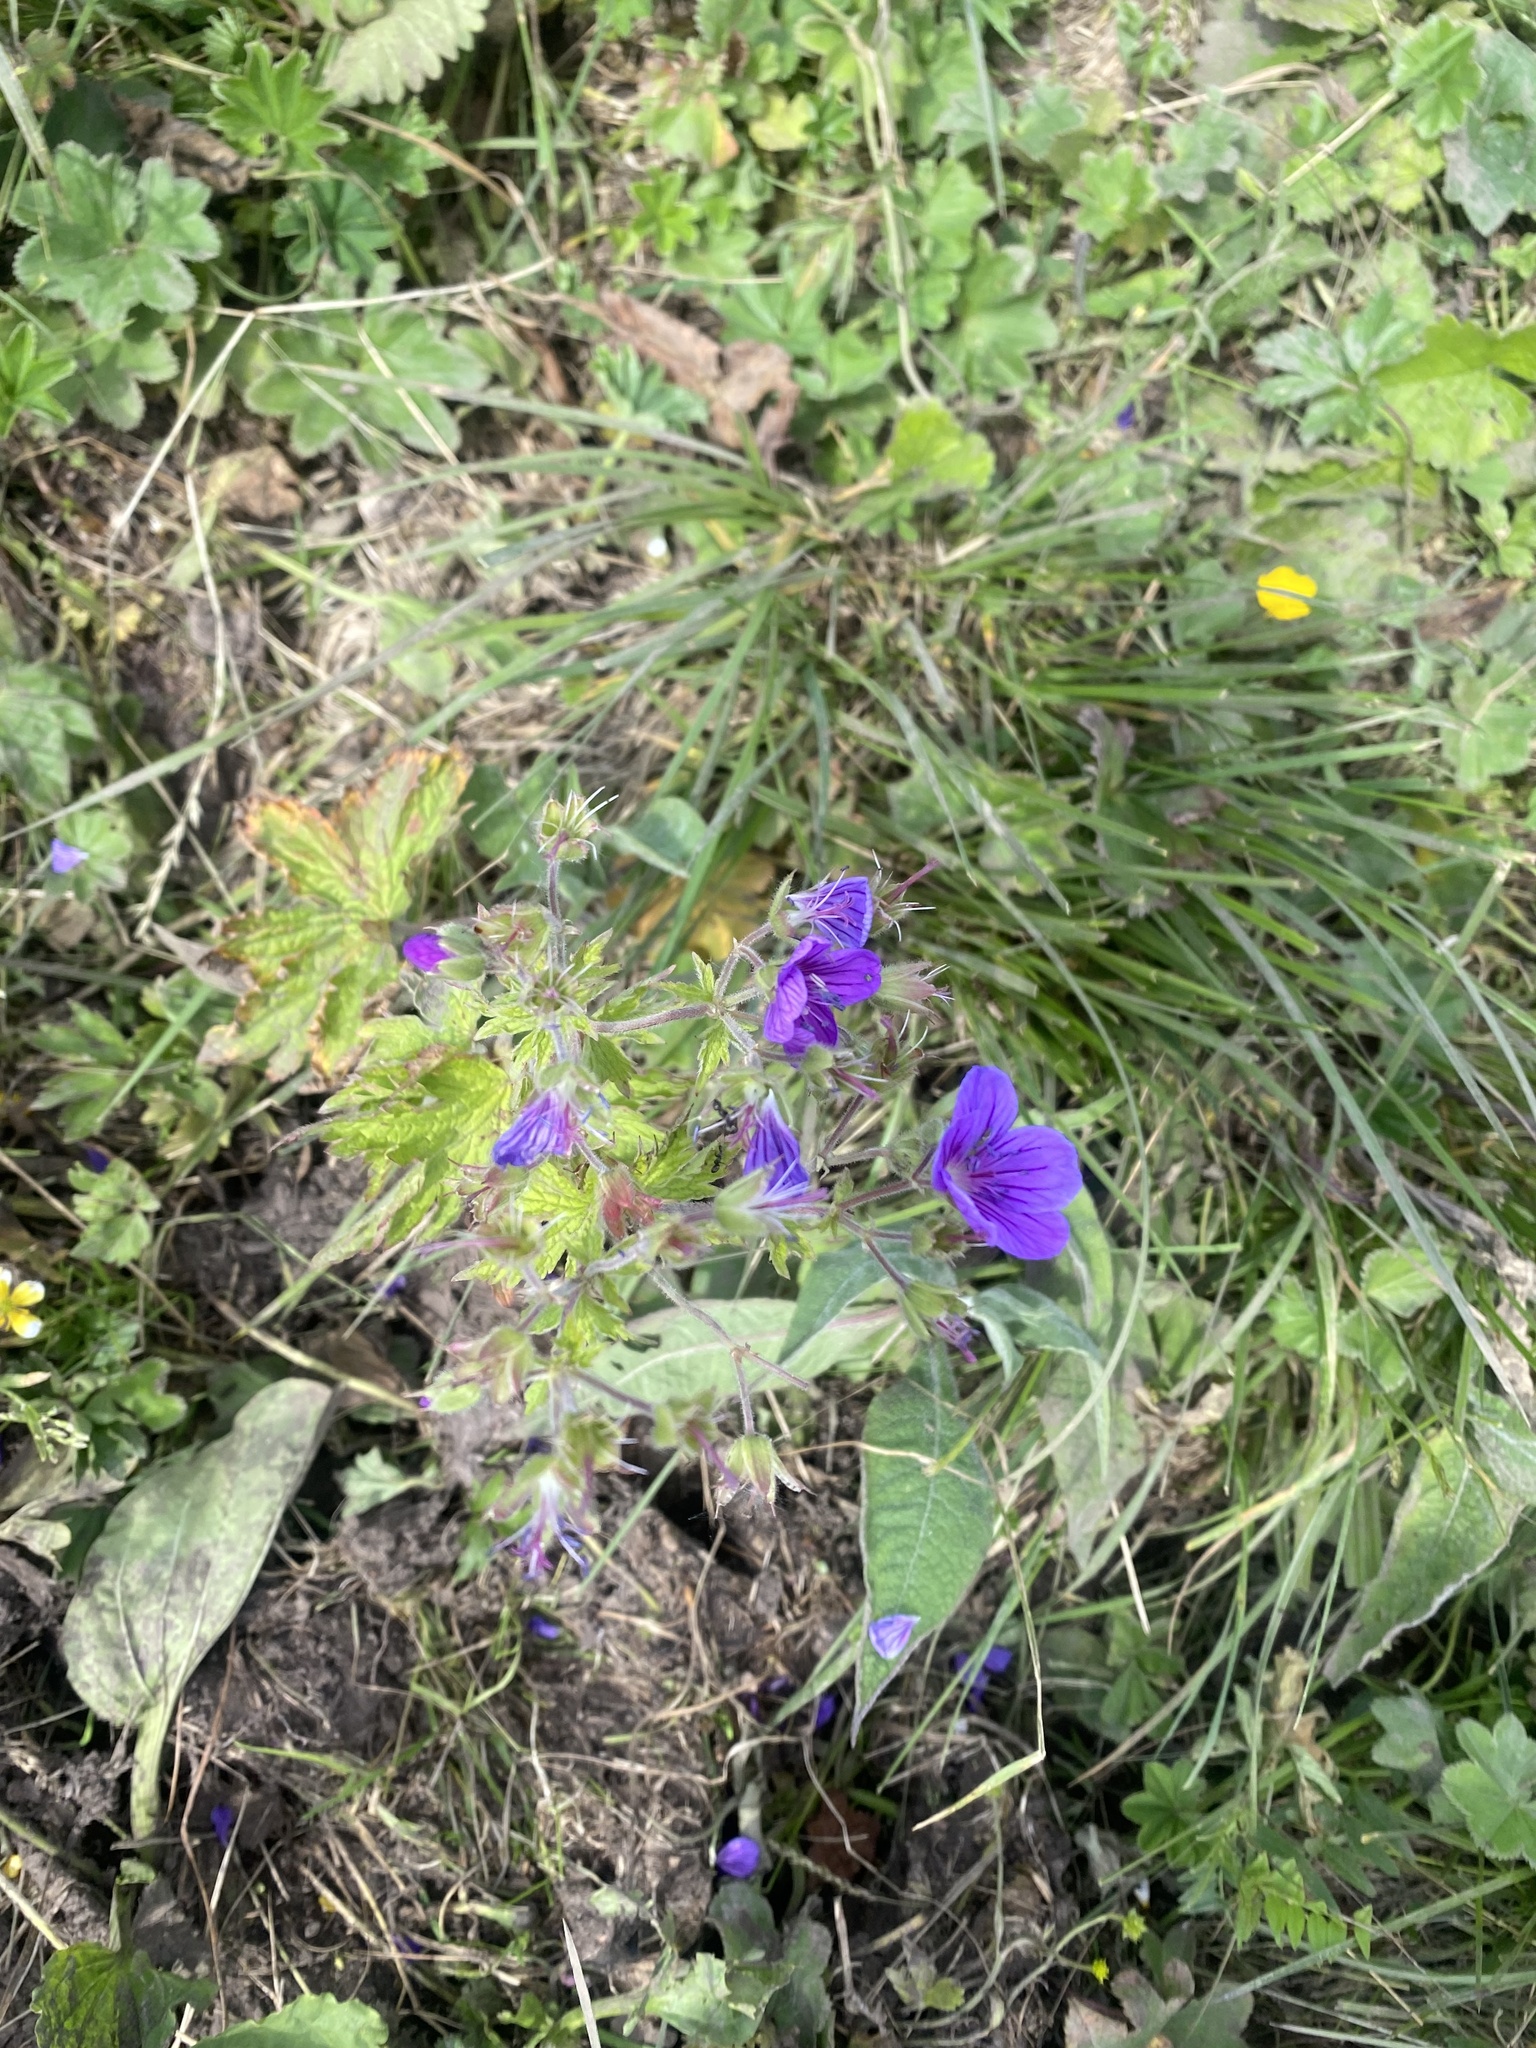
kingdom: Plantae
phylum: Tracheophyta
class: Magnoliopsida
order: Geraniales
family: Geraniaceae
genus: Geranium
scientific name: Geranium sylvaticum
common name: Wood crane's-bill
